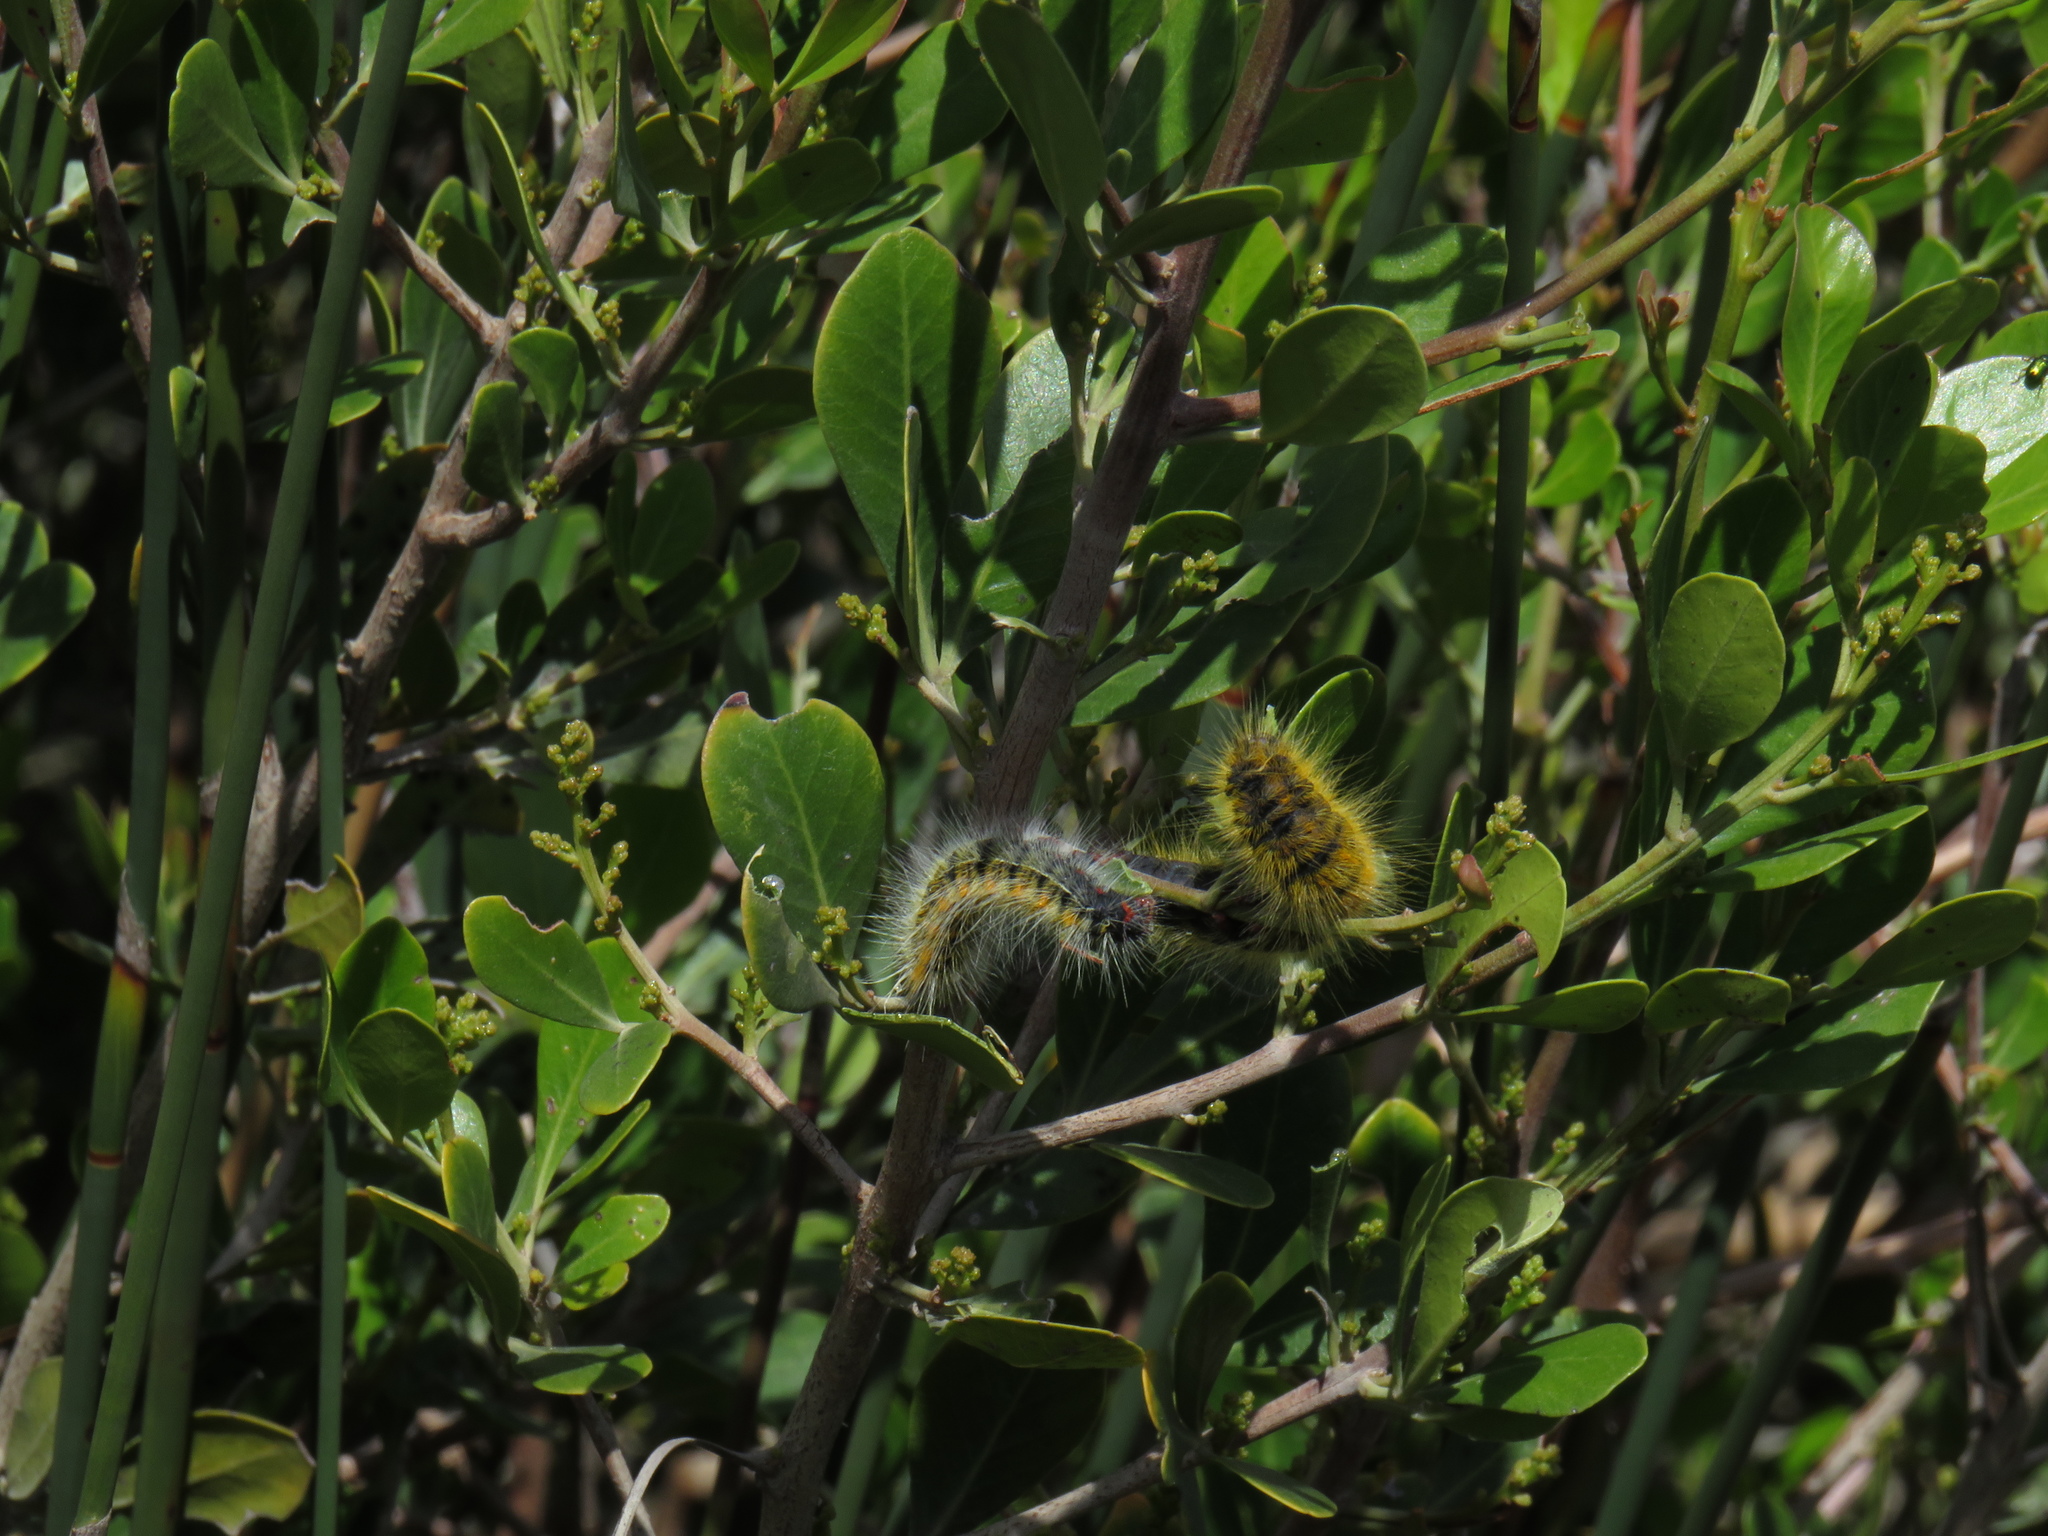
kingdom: Plantae
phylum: Tracheophyta
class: Magnoliopsida
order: Sapindales
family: Anacardiaceae
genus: Searsia
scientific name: Searsia
